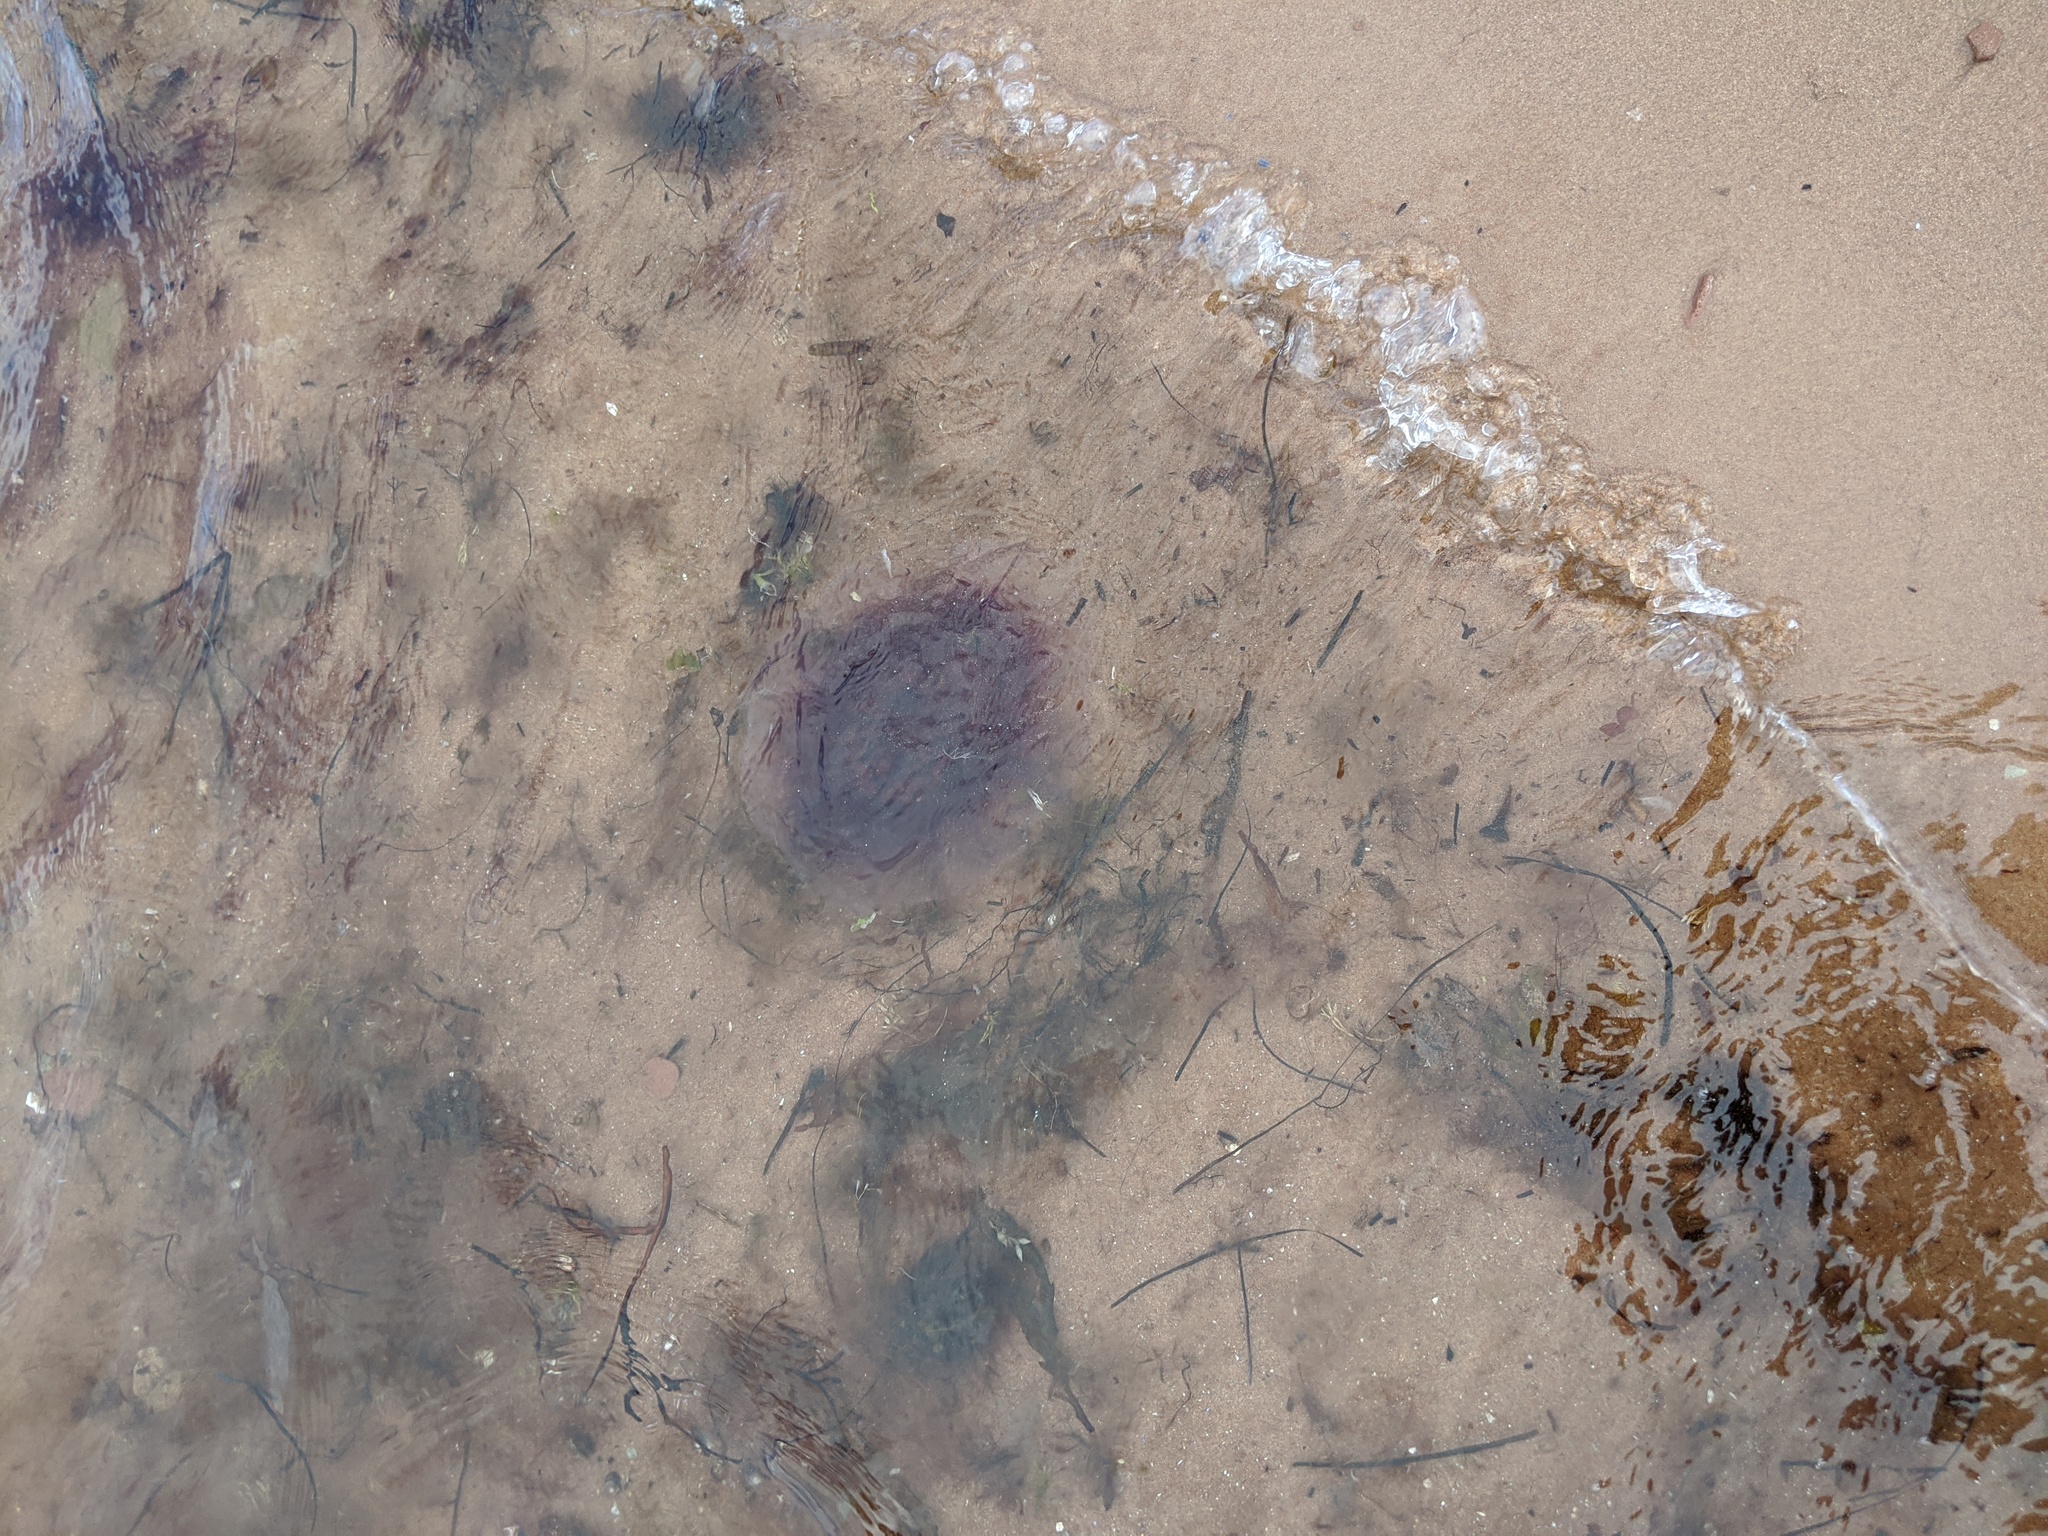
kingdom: Animalia
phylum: Cnidaria
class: Scyphozoa
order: Semaeostomeae
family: Cyaneidae
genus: Cyanea
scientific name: Cyanea
